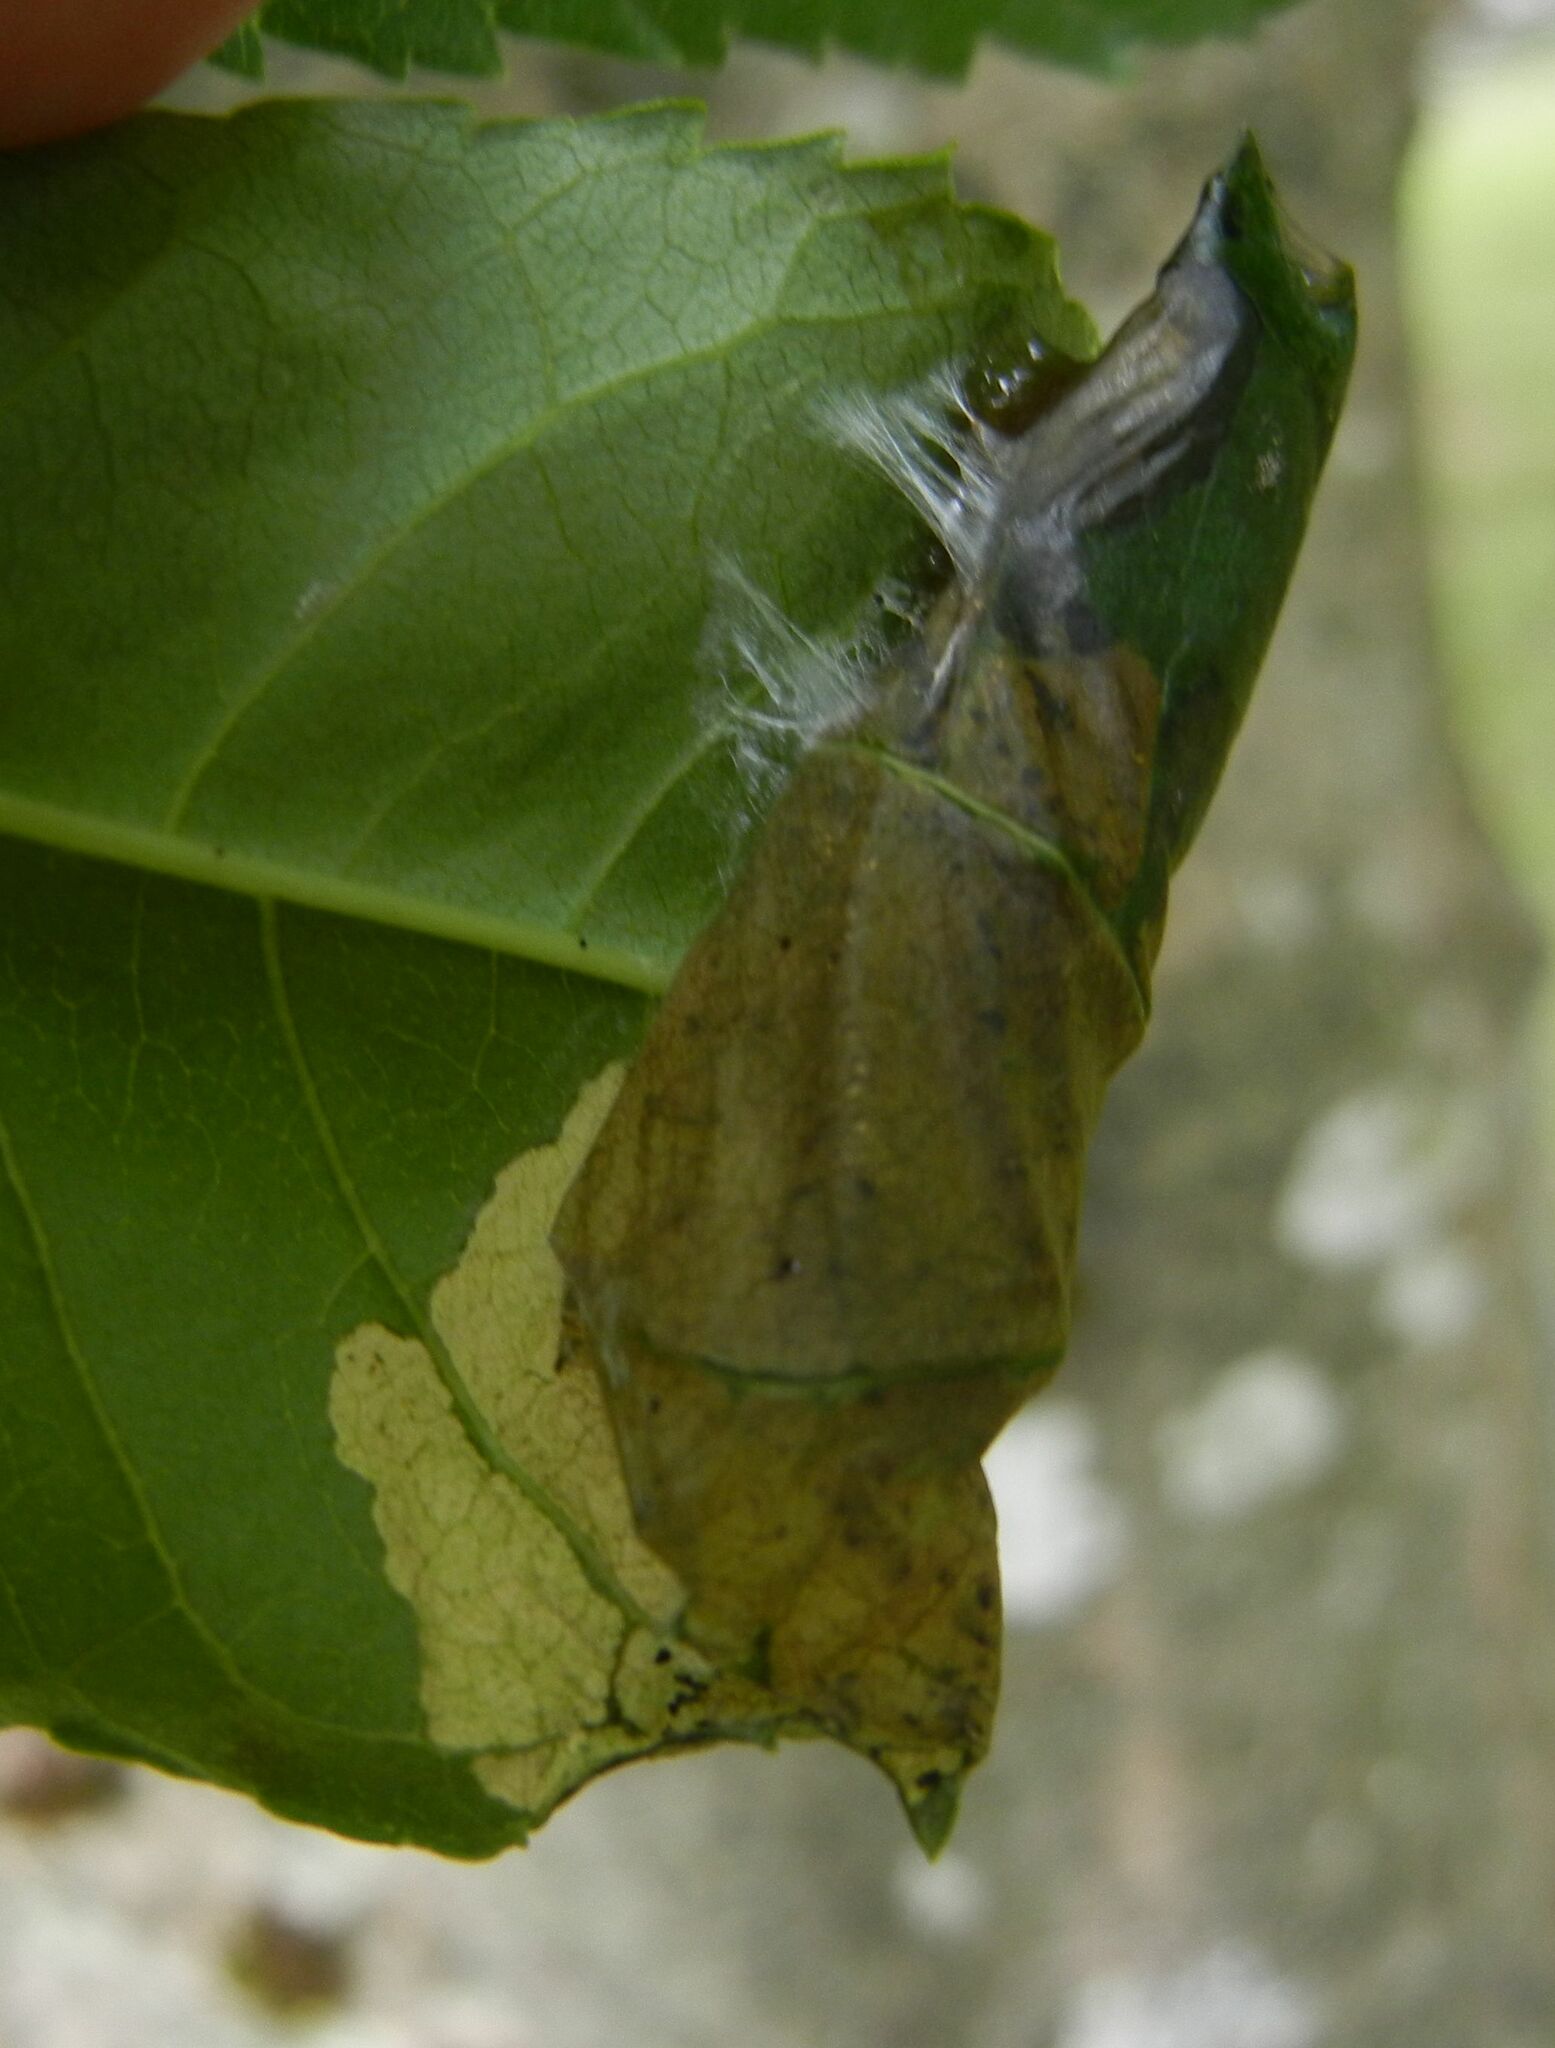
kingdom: Animalia
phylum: Arthropoda
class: Insecta
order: Lepidoptera
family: Gracillariidae
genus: Gracillaria
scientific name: Gracillaria syringella
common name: Common slender
